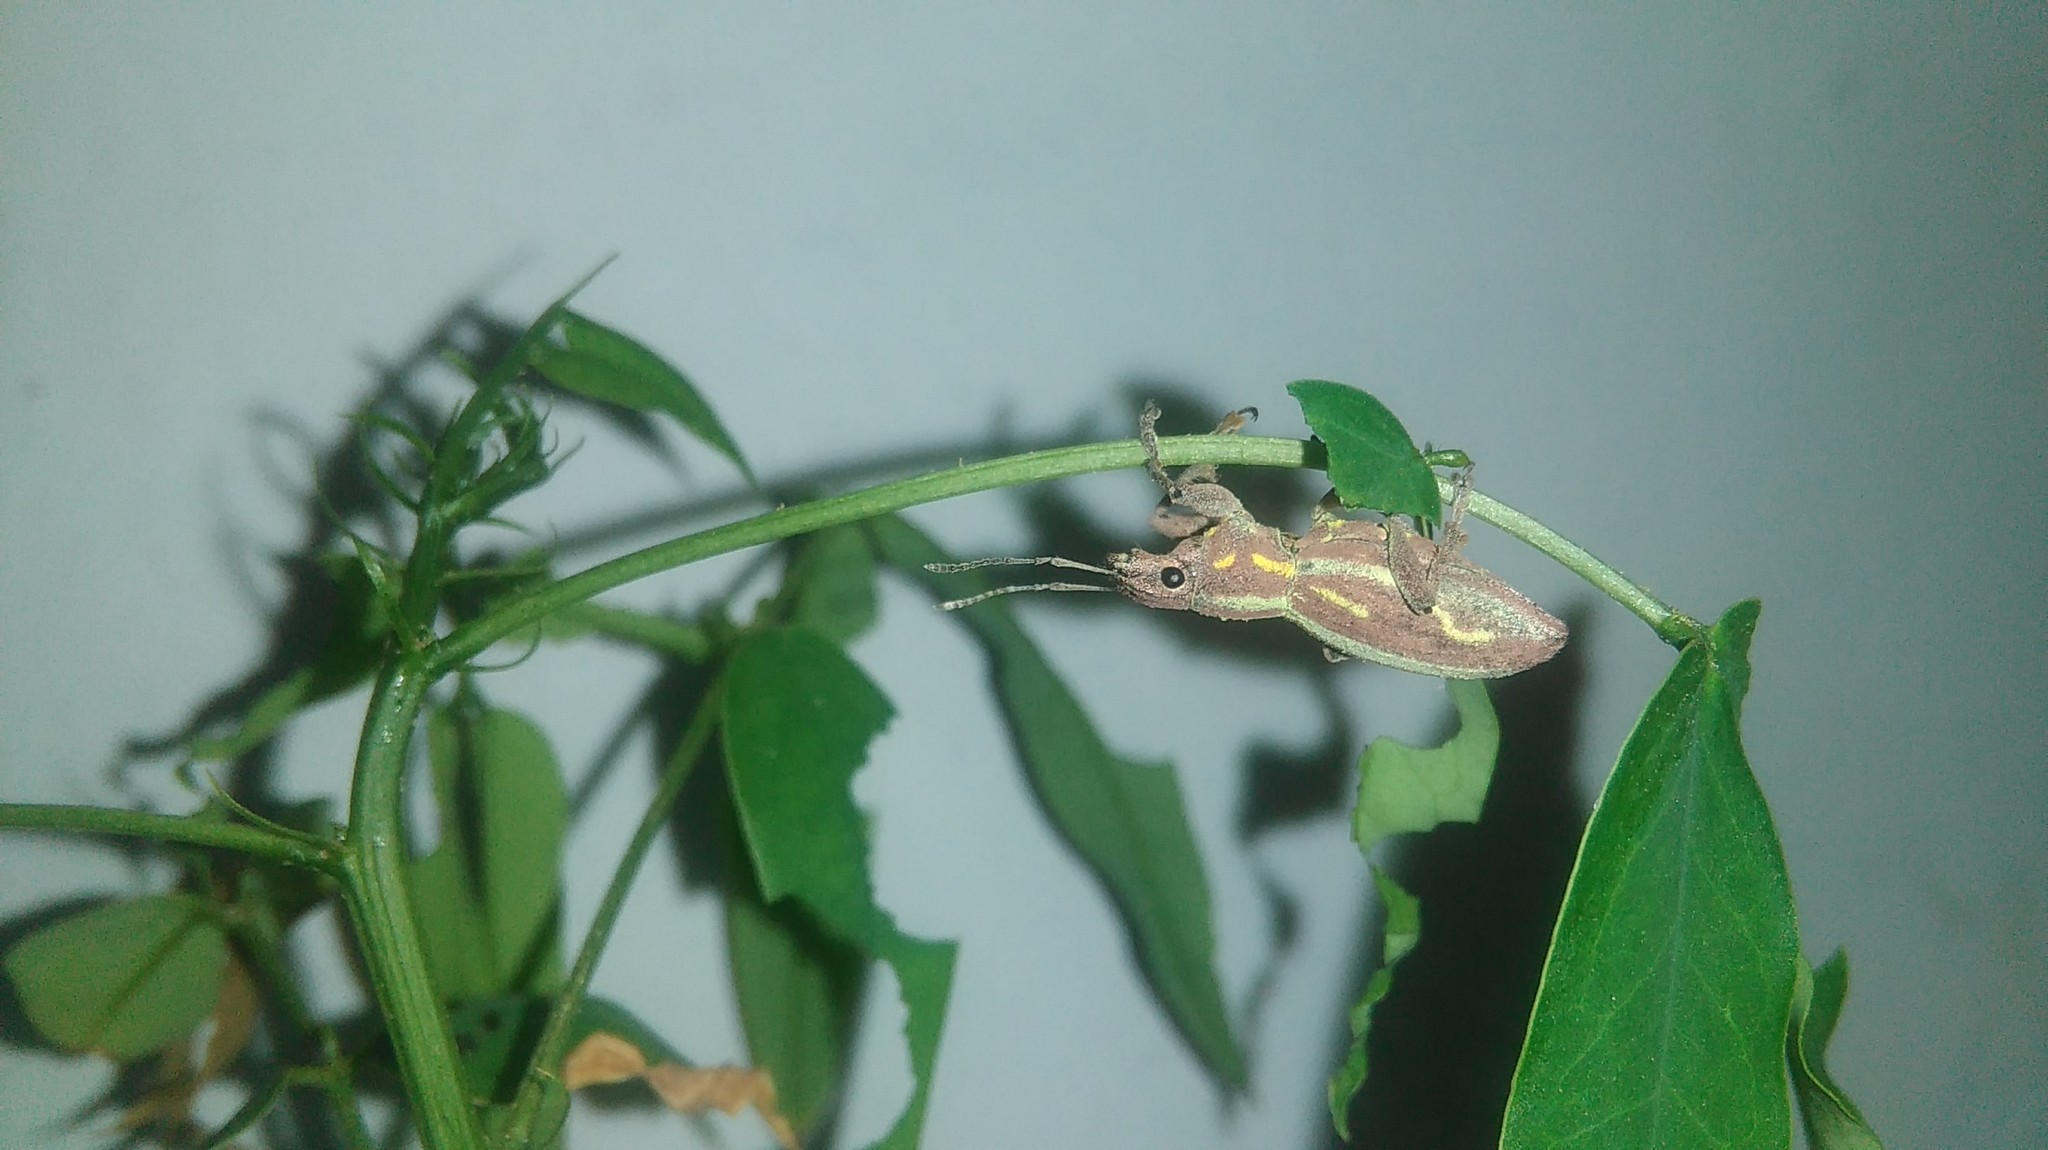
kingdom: Animalia
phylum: Arthropoda
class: Insecta
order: Coleoptera
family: Curculionidae
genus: Naupactus
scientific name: Naupactus xanthographus
